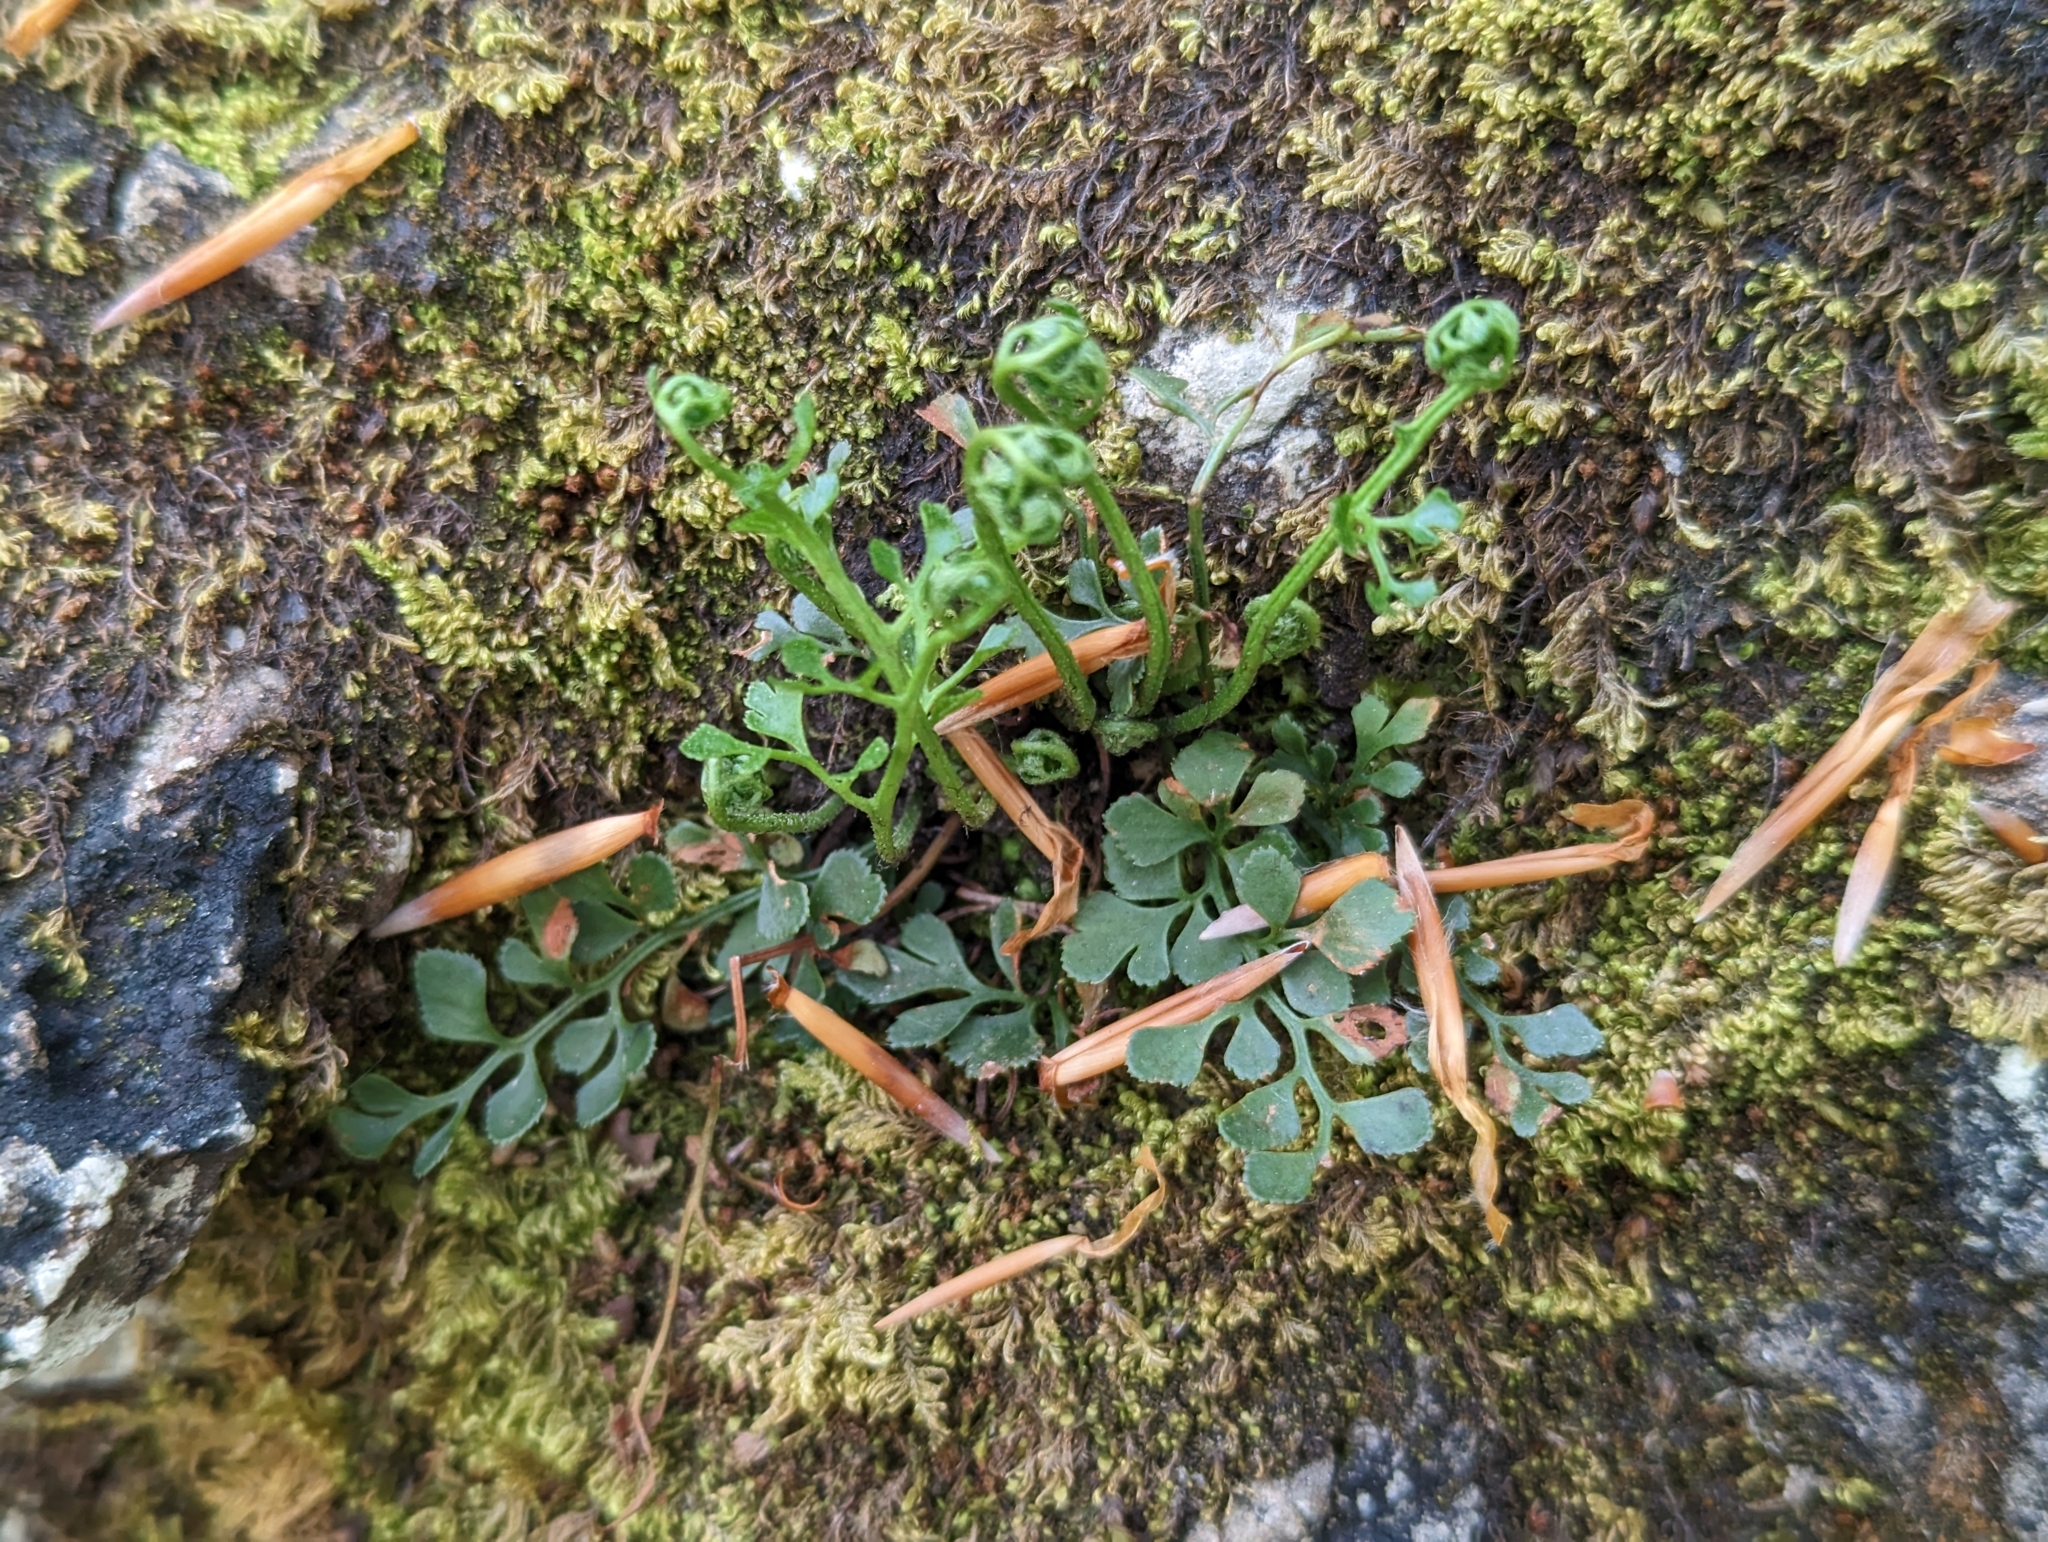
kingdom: Plantae
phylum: Tracheophyta
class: Polypodiopsida
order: Polypodiales
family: Aspleniaceae
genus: Asplenium
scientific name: Asplenium ruta-muraria
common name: Wall-rue
